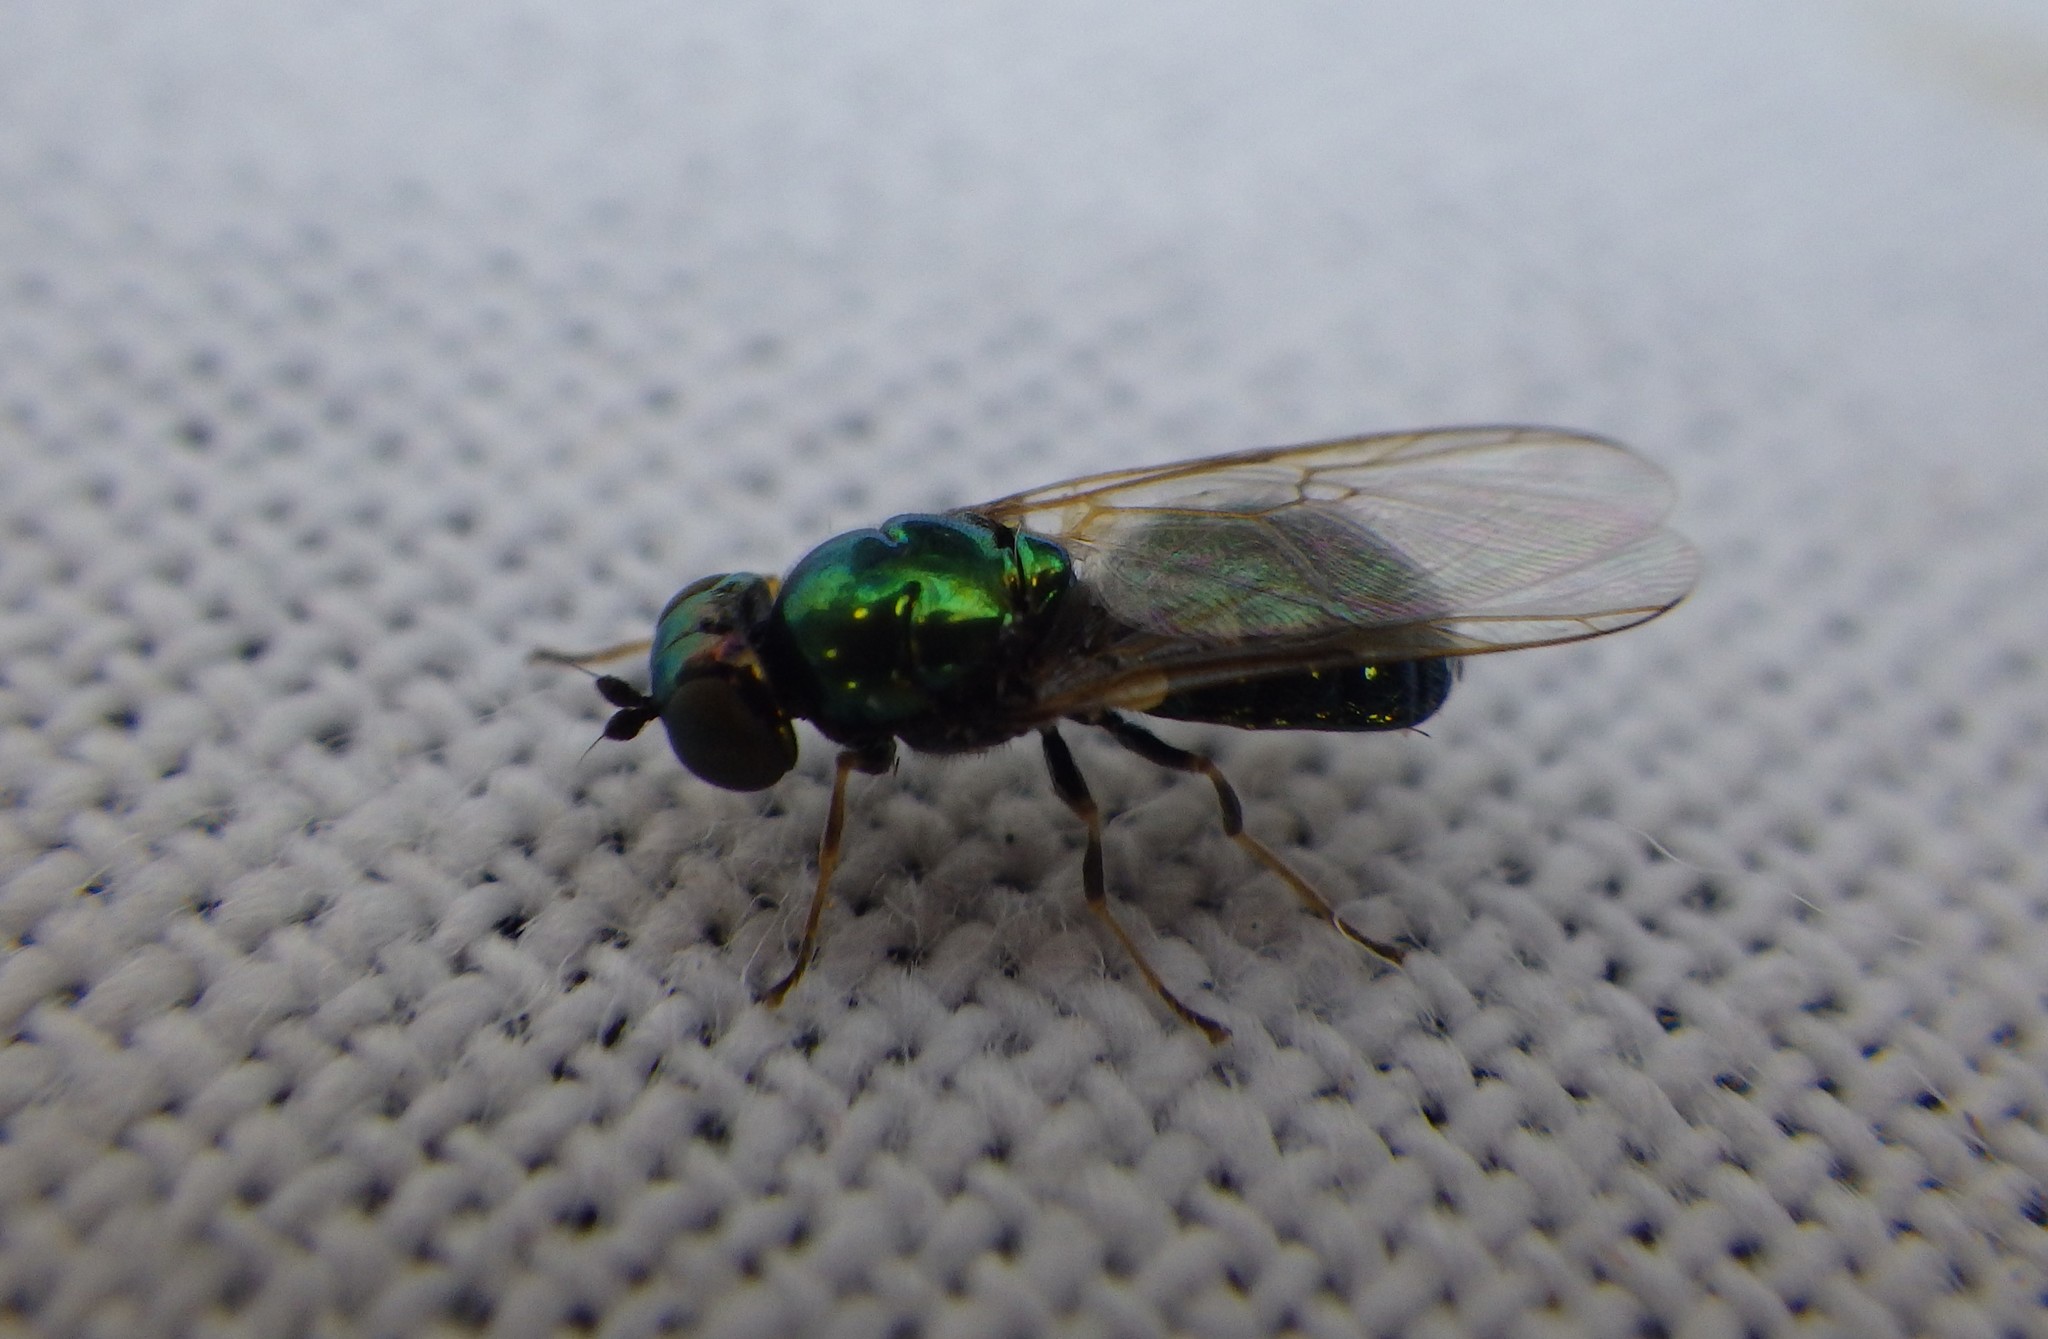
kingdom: Animalia
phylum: Arthropoda
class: Insecta
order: Diptera
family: Stratiomyidae
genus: Microchrysa
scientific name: Microchrysa polita
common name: Black-horned gem
